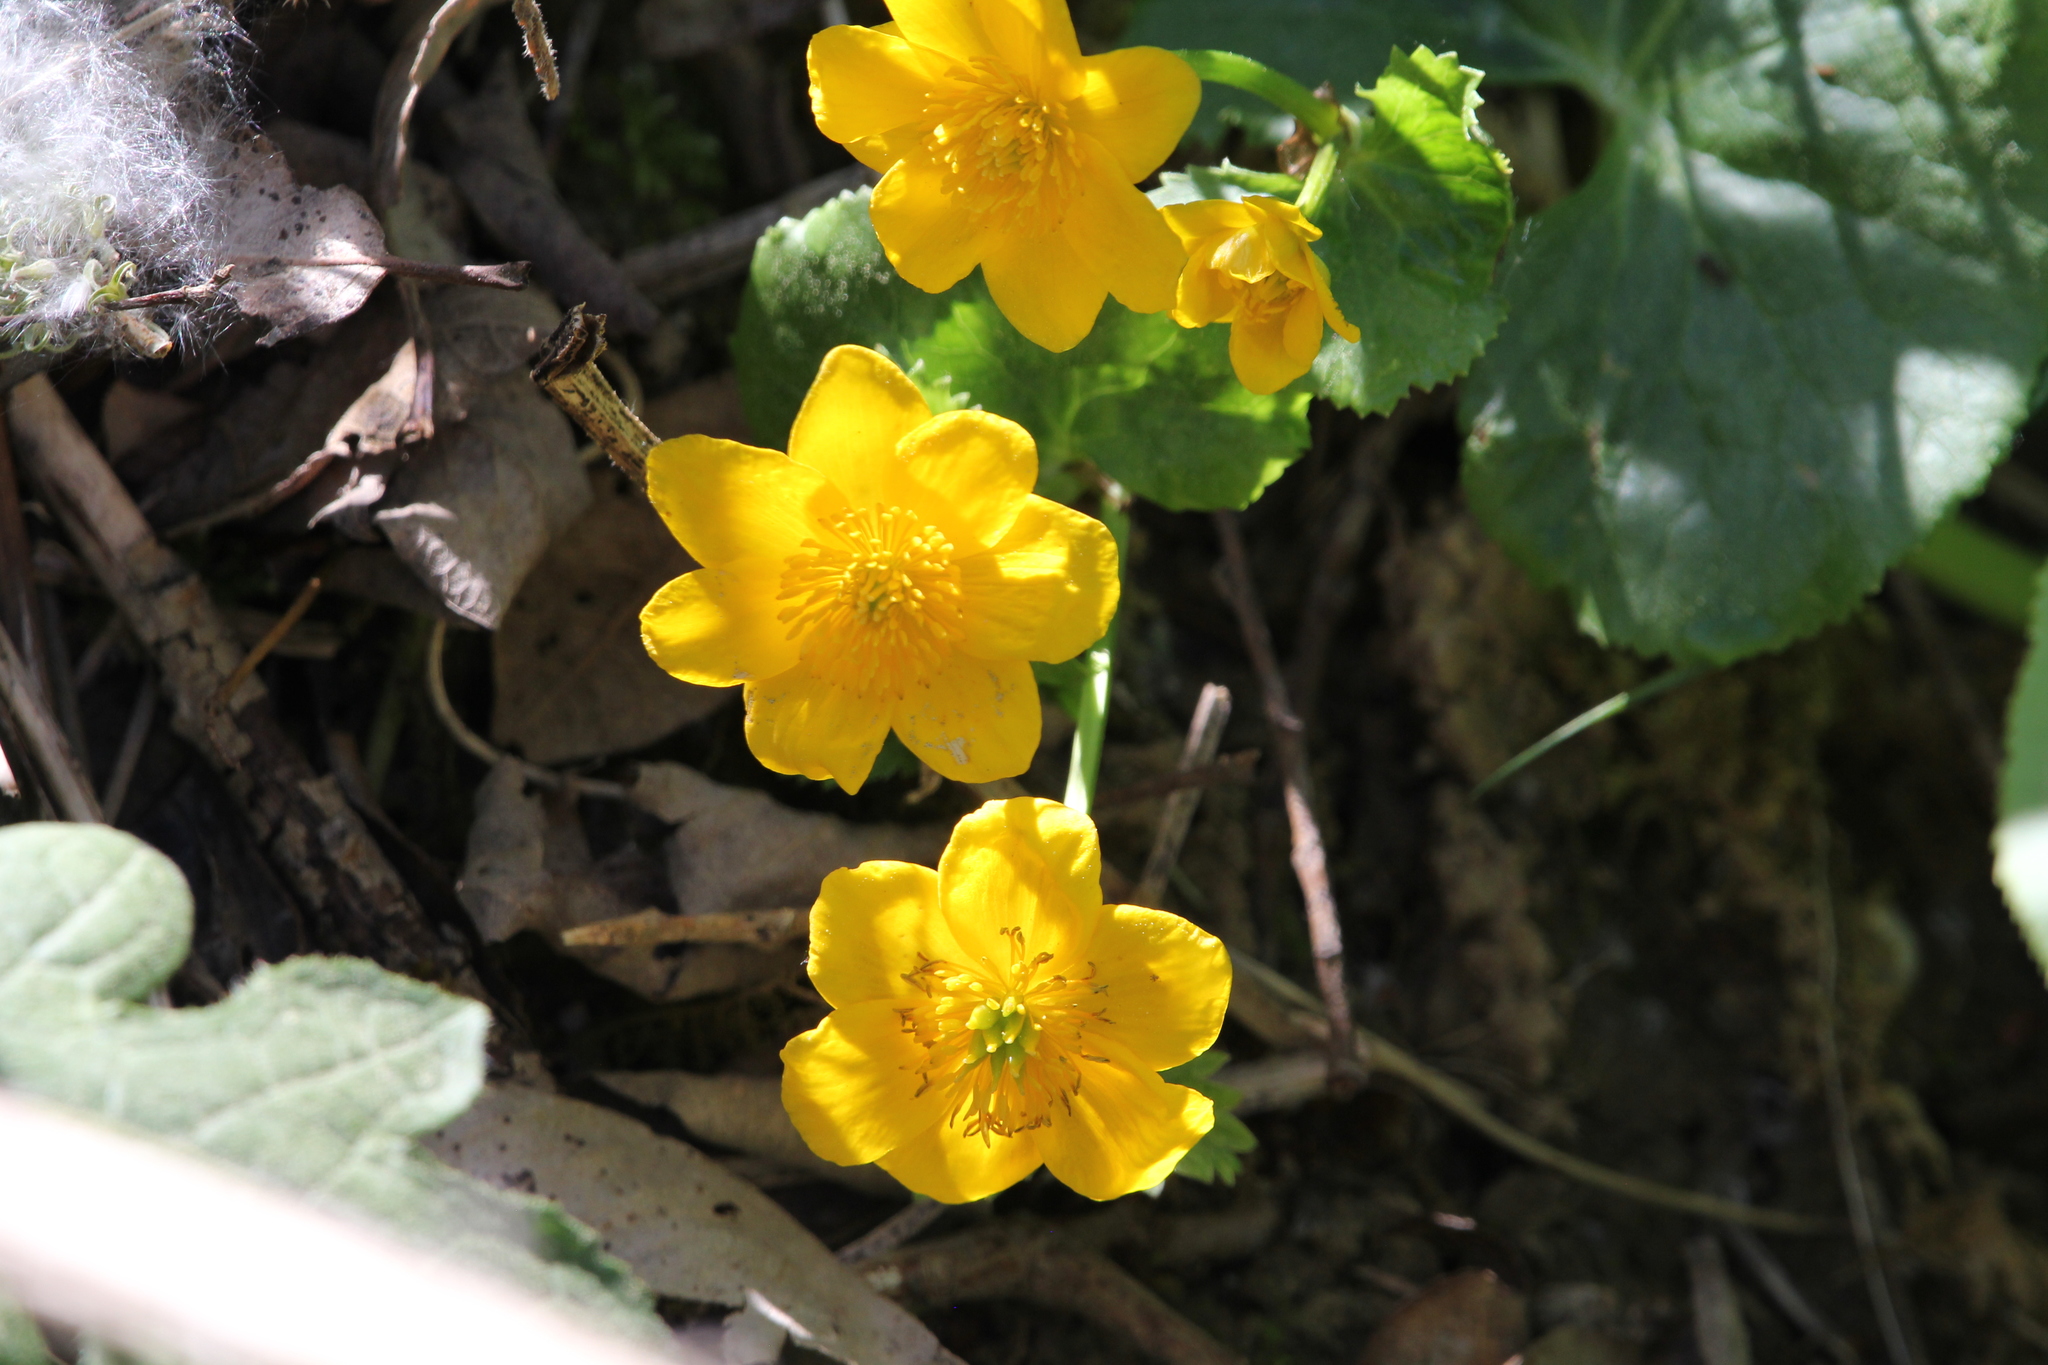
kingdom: Plantae
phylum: Tracheophyta
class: Magnoliopsida
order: Ranunculales
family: Ranunculaceae
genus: Caltha
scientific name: Caltha palustris
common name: Marsh marigold
